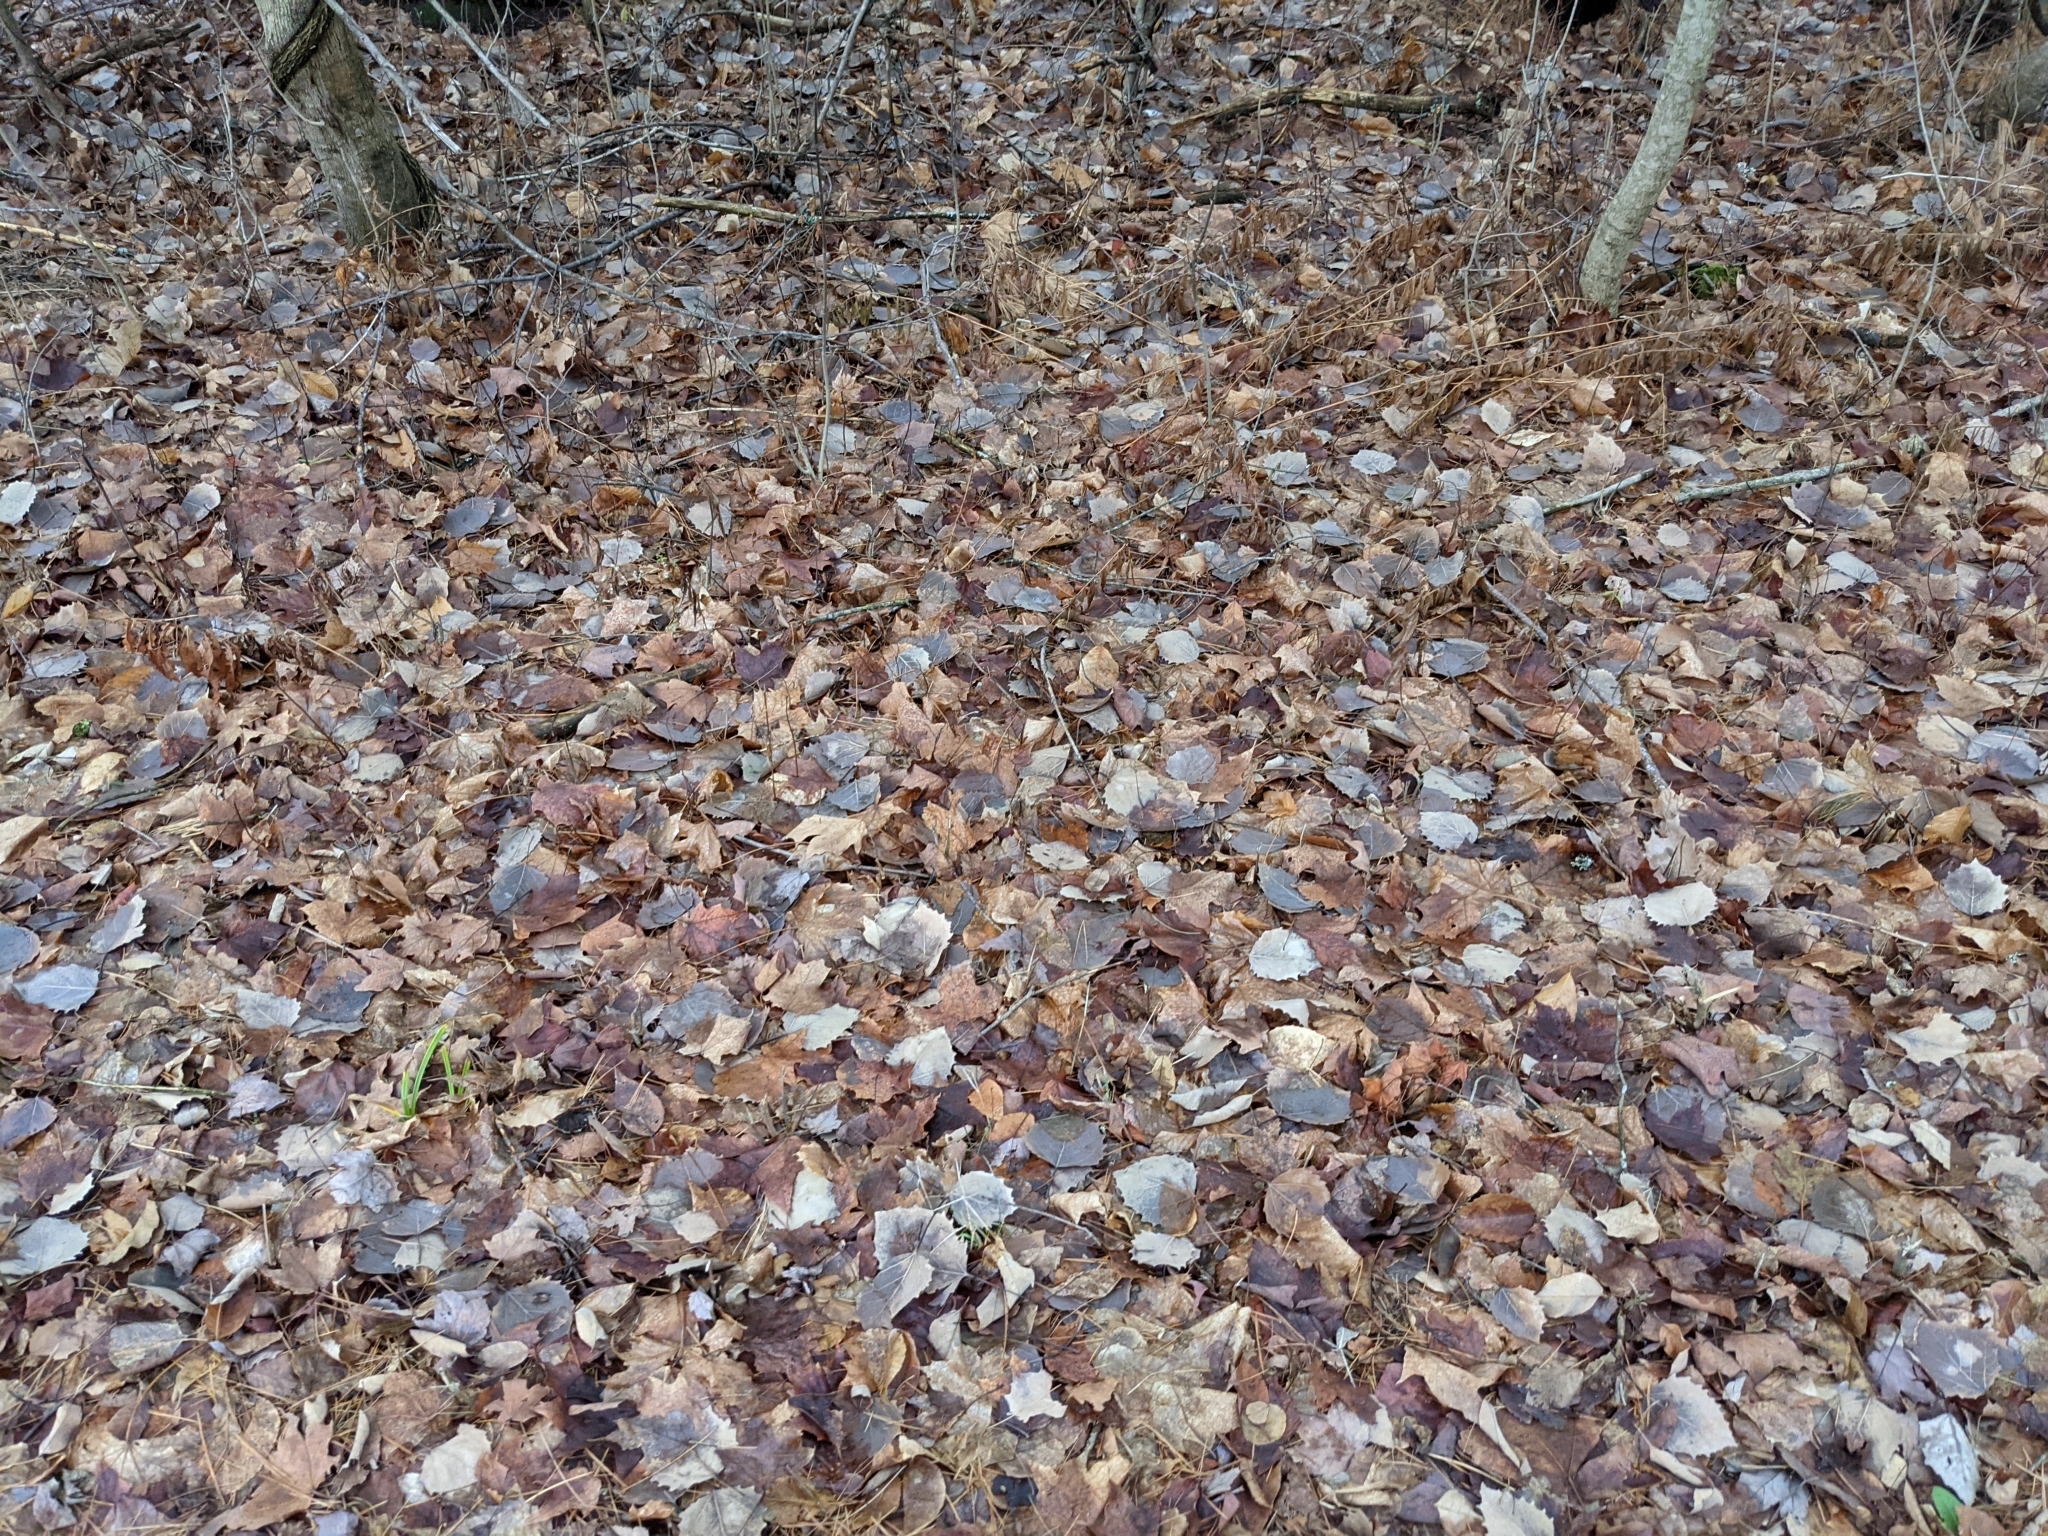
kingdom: Plantae
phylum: Tracheophyta
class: Magnoliopsida
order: Malpighiales
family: Salicaceae
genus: Populus
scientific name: Populus grandidentata
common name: Bigtooth aspen
